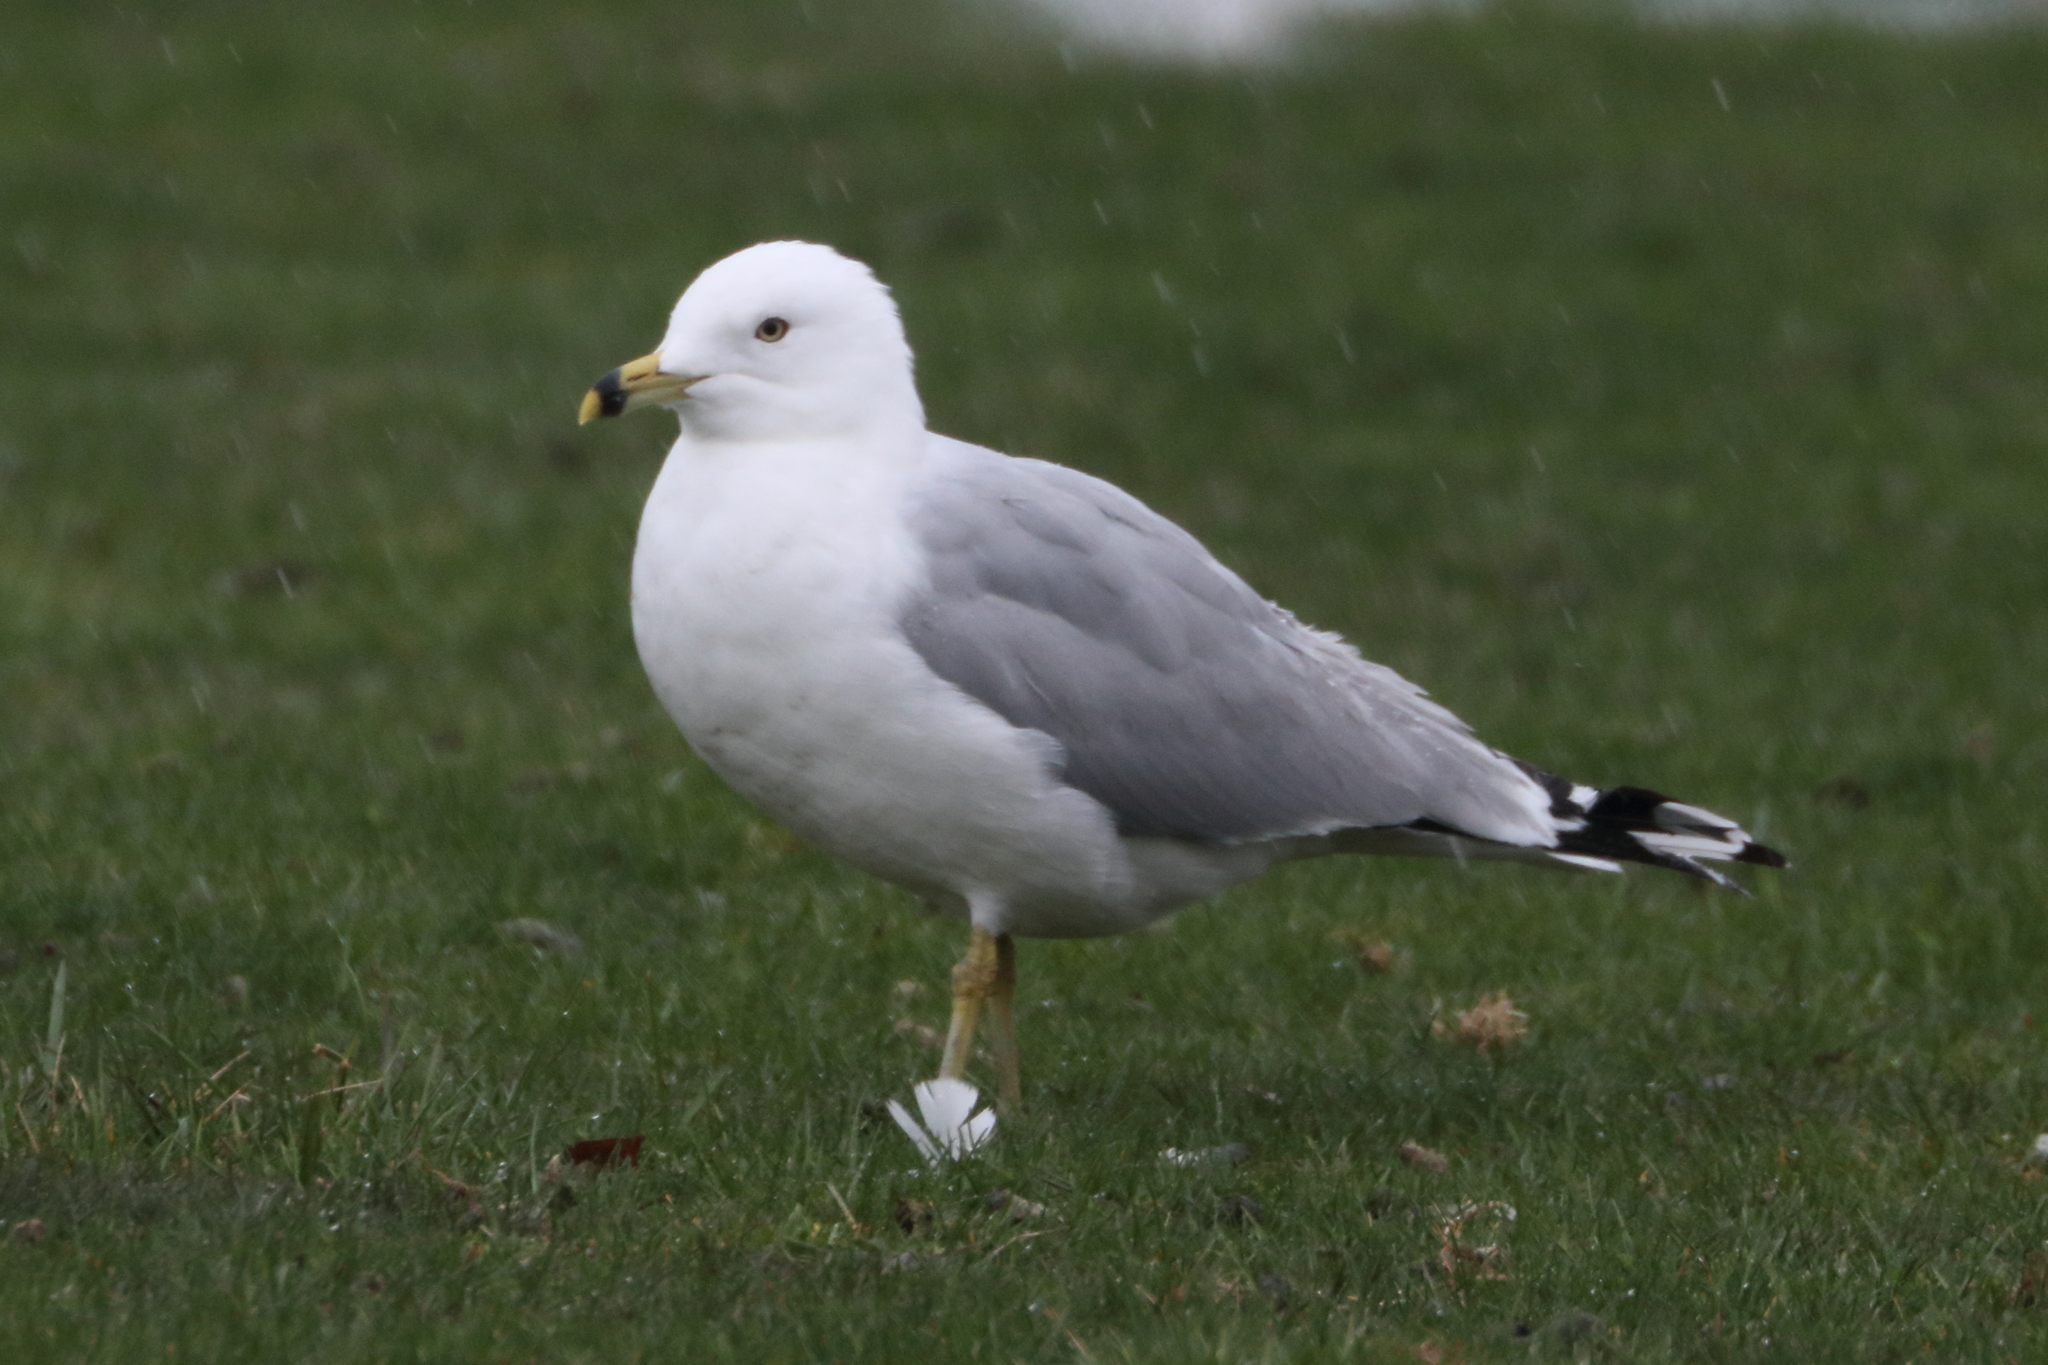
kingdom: Animalia
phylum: Chordata
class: Aves
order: Charadriiformes
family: Laridae
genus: Larus
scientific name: Larus delawarensis
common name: Ring-billed gull
